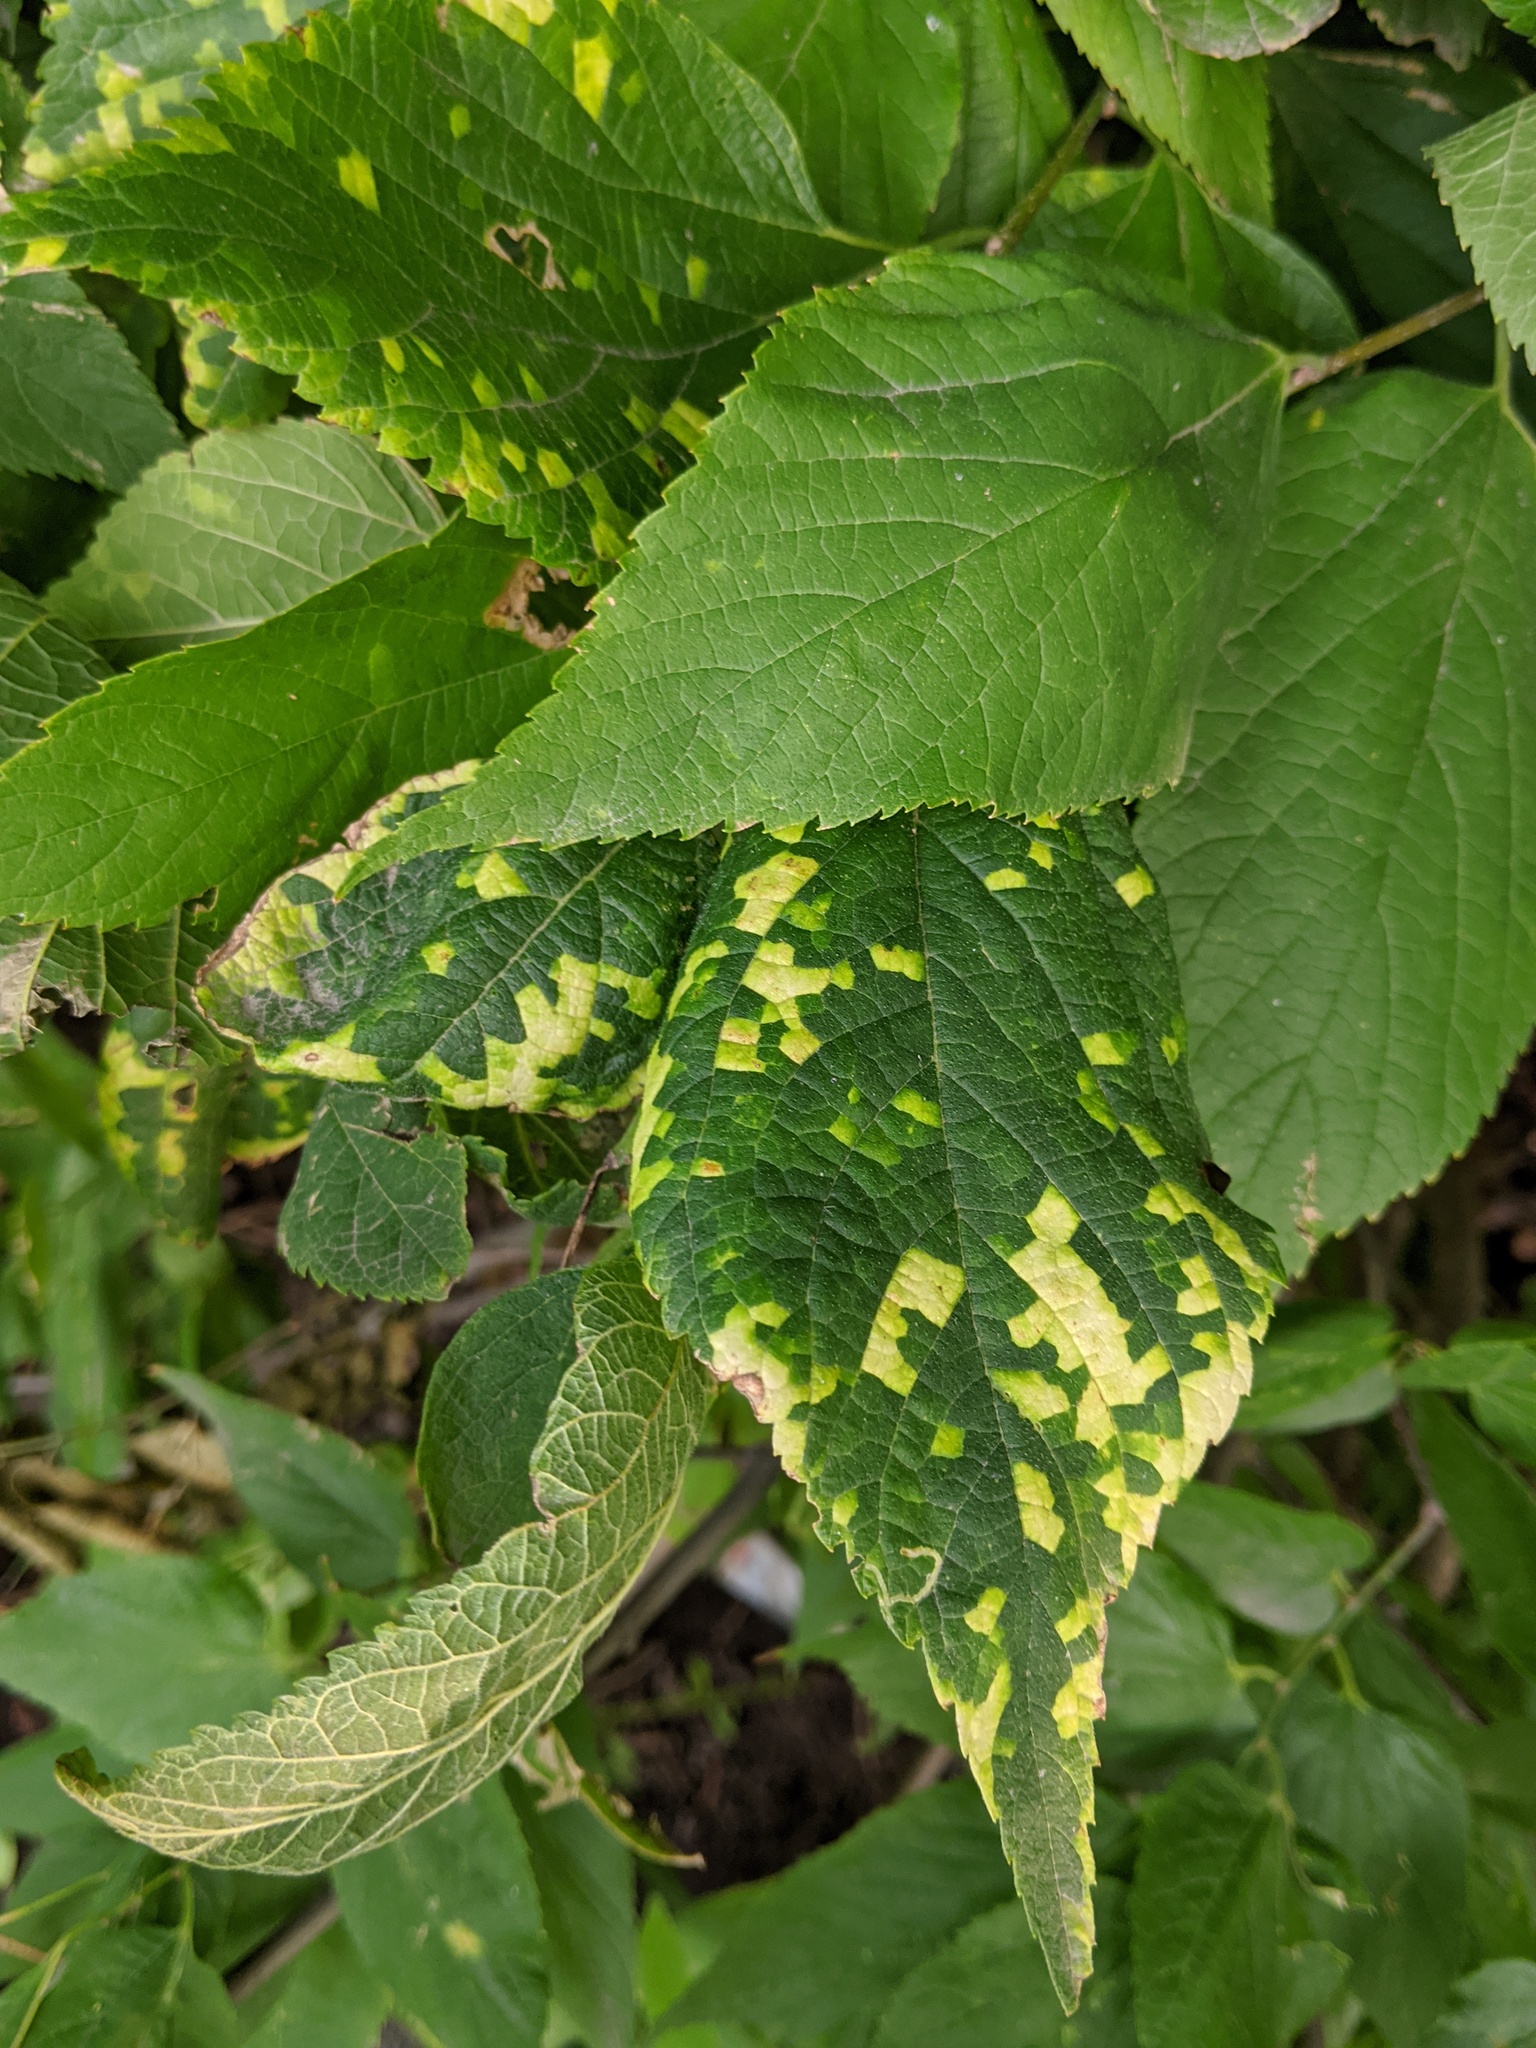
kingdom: Viruses
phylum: Kitrinoviricota
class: Alsuviricetes
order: Martellivirales
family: Closteroviridae
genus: Ampelovirus
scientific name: Ampelovirus
